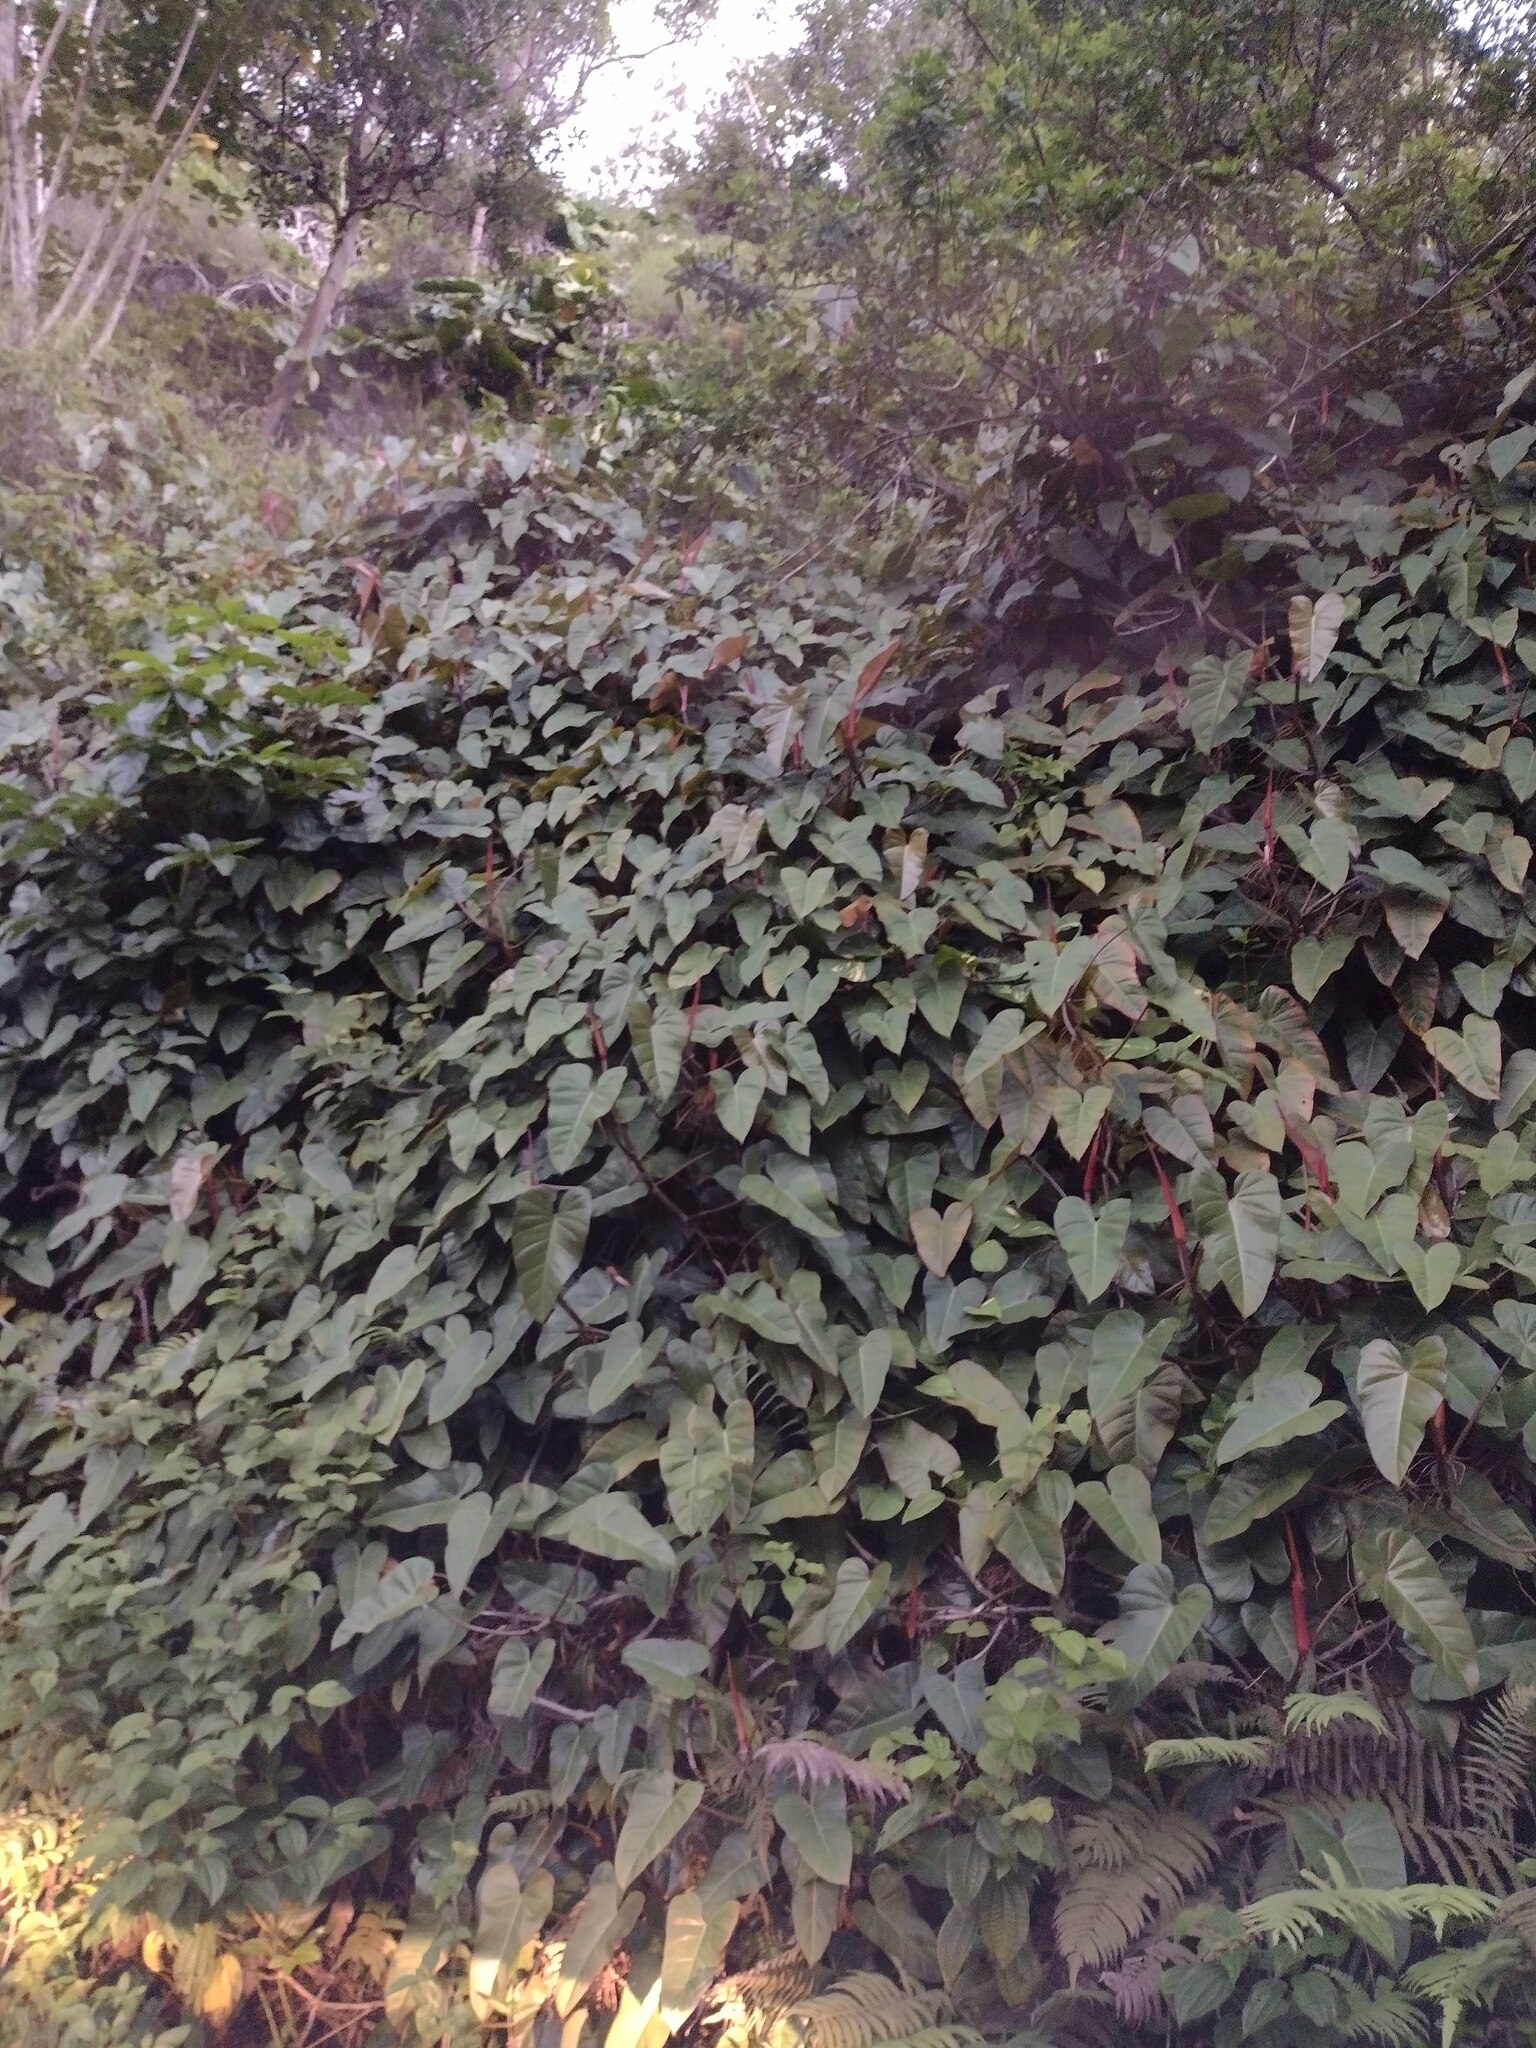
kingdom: Plantae
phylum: Tracheophyta
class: Liliopsida
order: Alismatales
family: Araceae
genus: Philodendron
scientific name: Philodendron erubescens
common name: Philodendron
